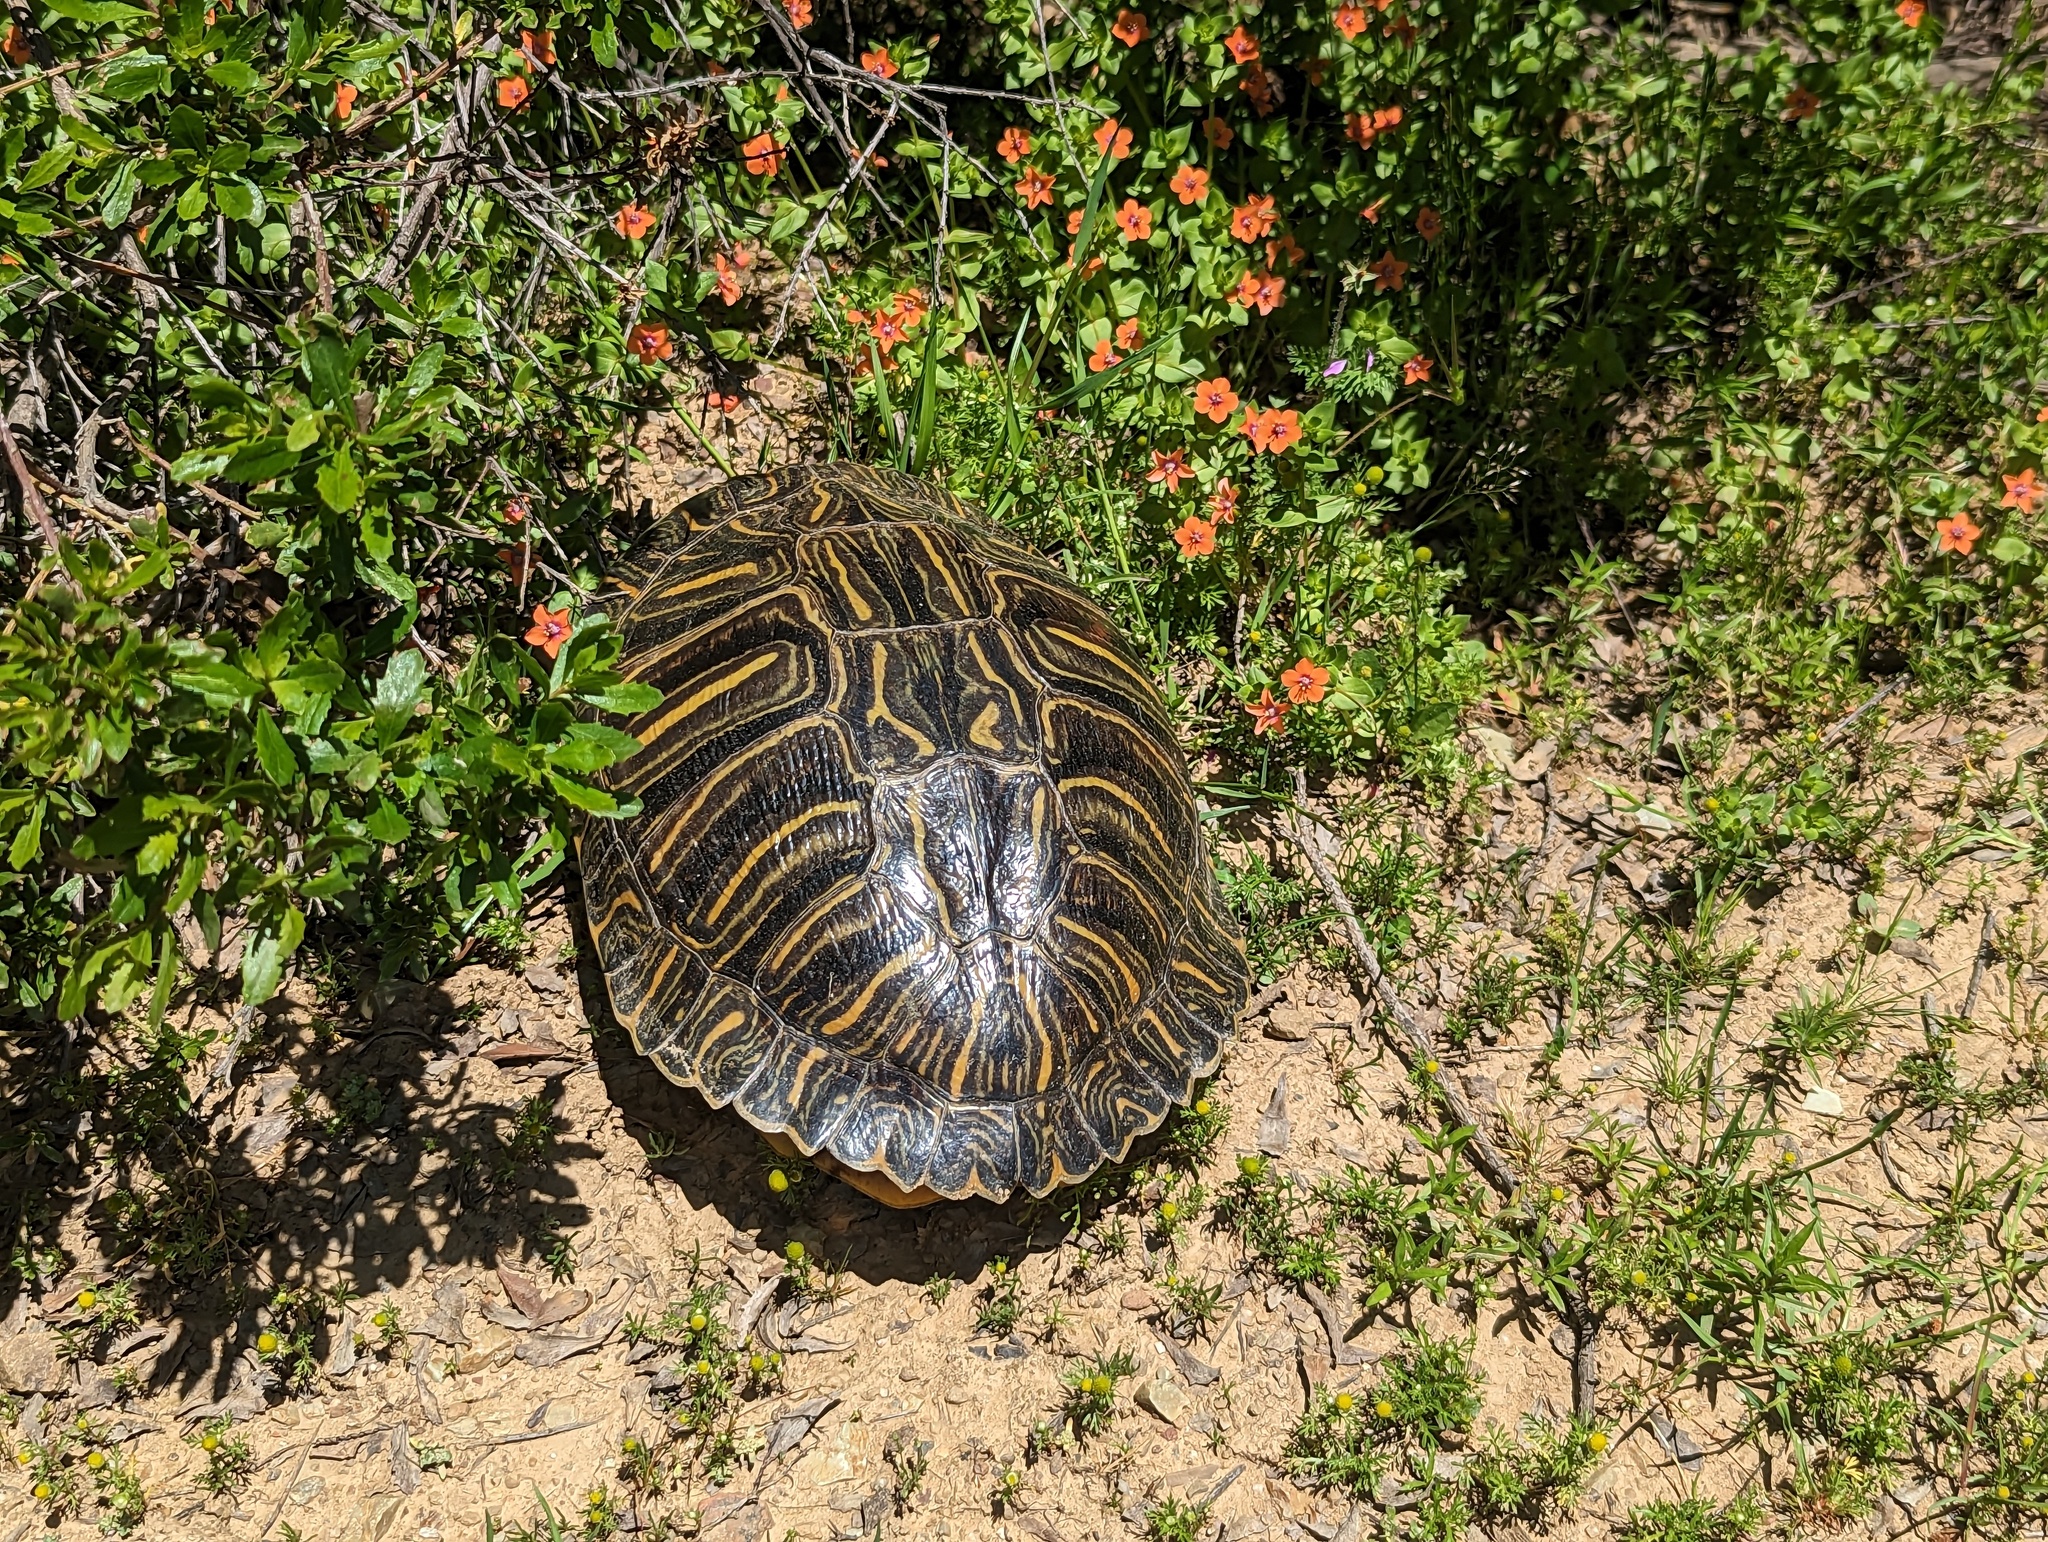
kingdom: Animalia
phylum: Chordata
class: Testudines
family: Emydidae
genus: Trachemys
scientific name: Trachemys scripta
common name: Slider
